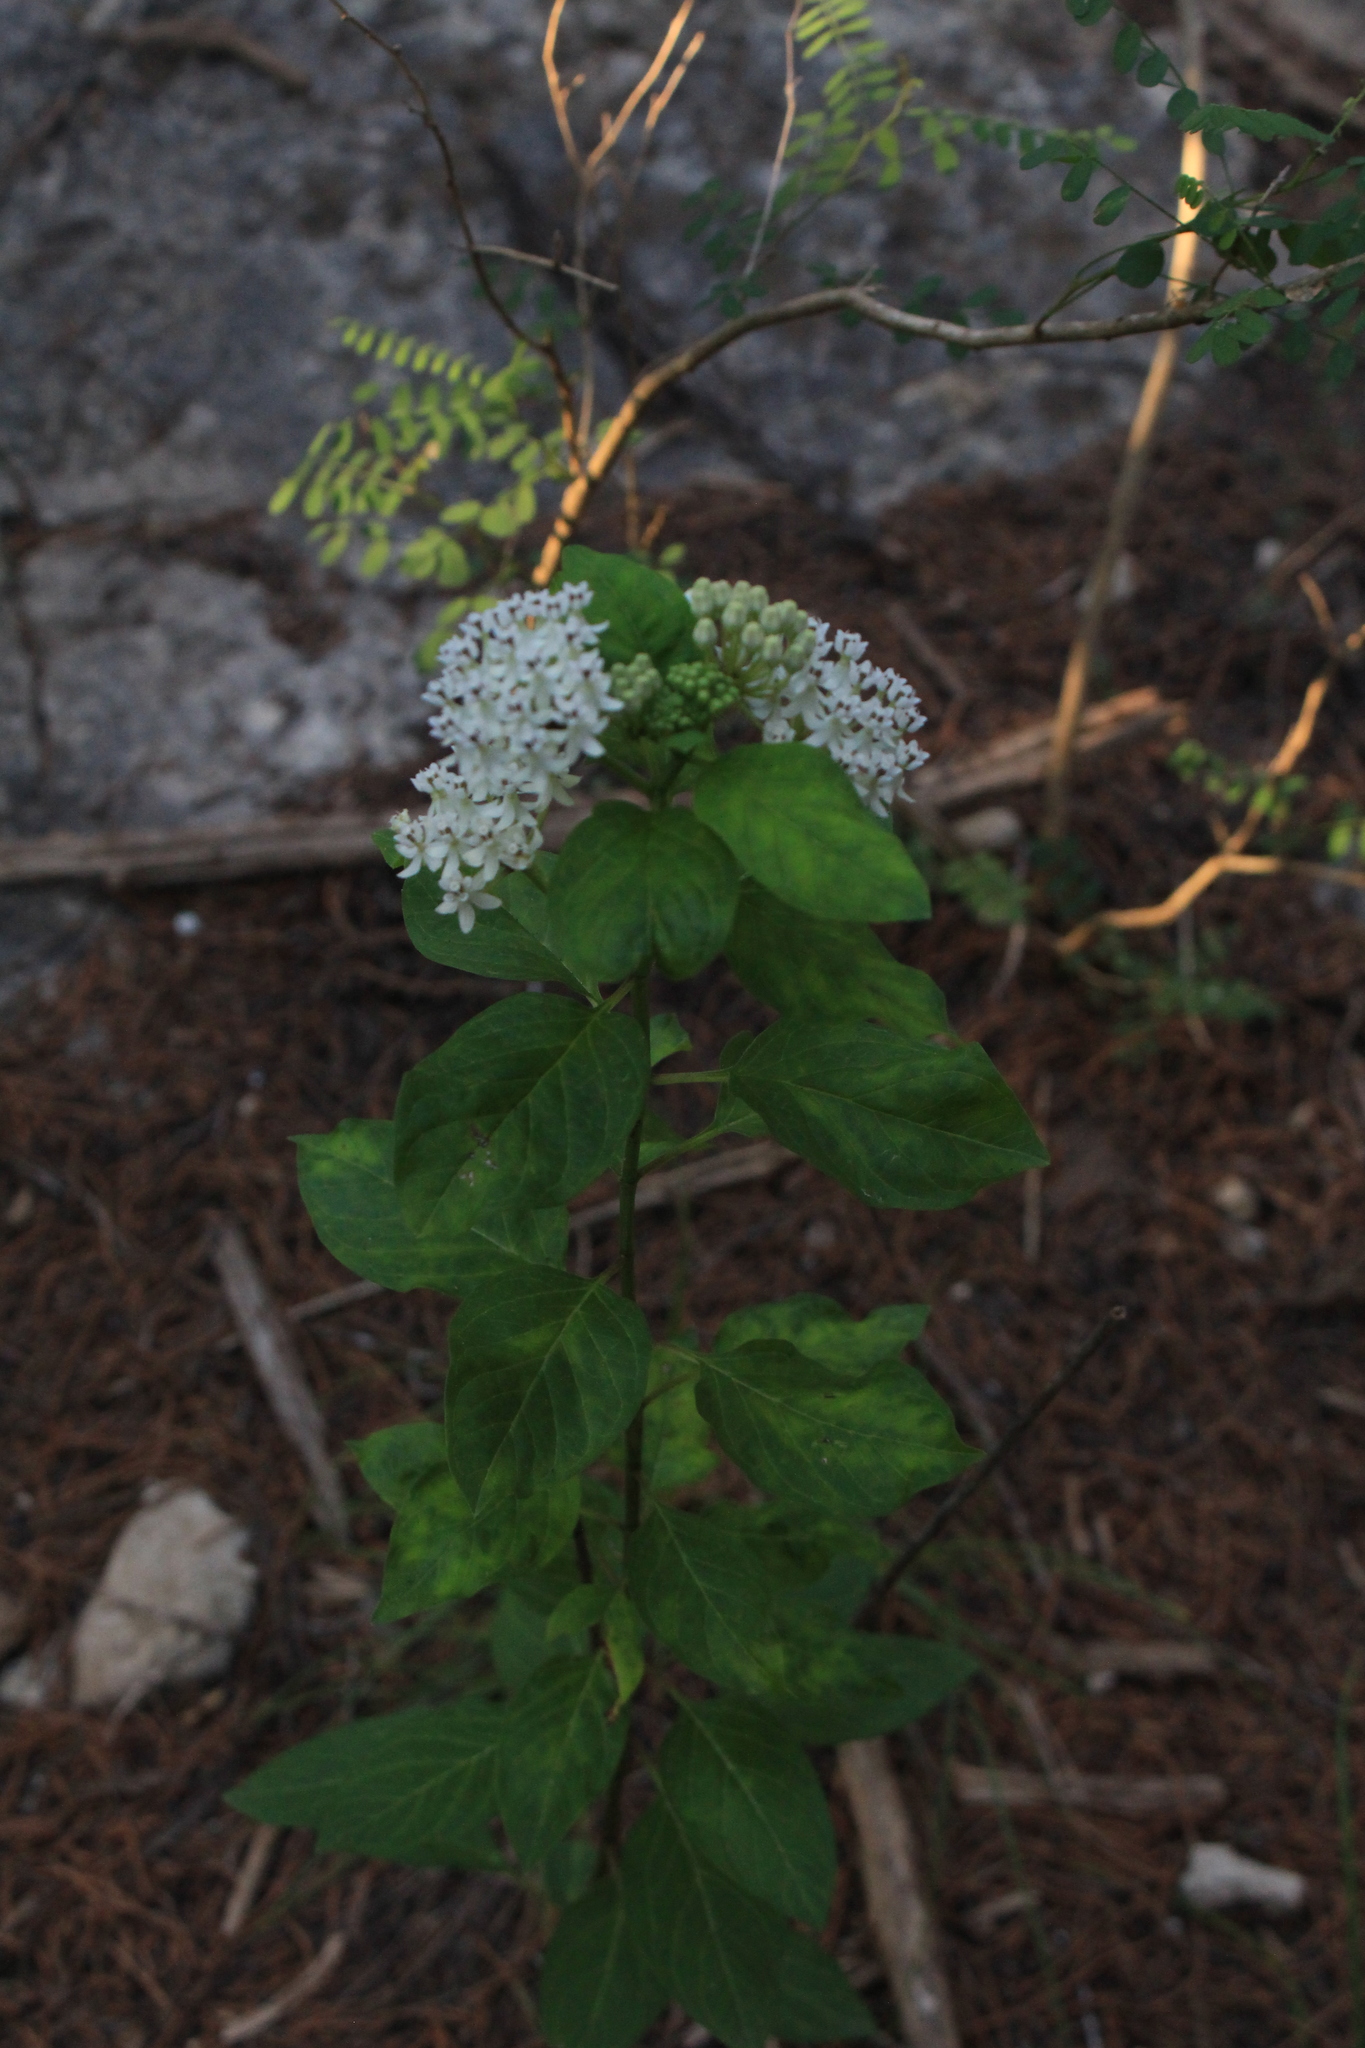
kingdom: Plantae
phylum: Tracheophyta
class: Magnoliopsida
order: Gentianales
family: Apocynaceae
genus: Asclepias
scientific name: Asclepias texana
